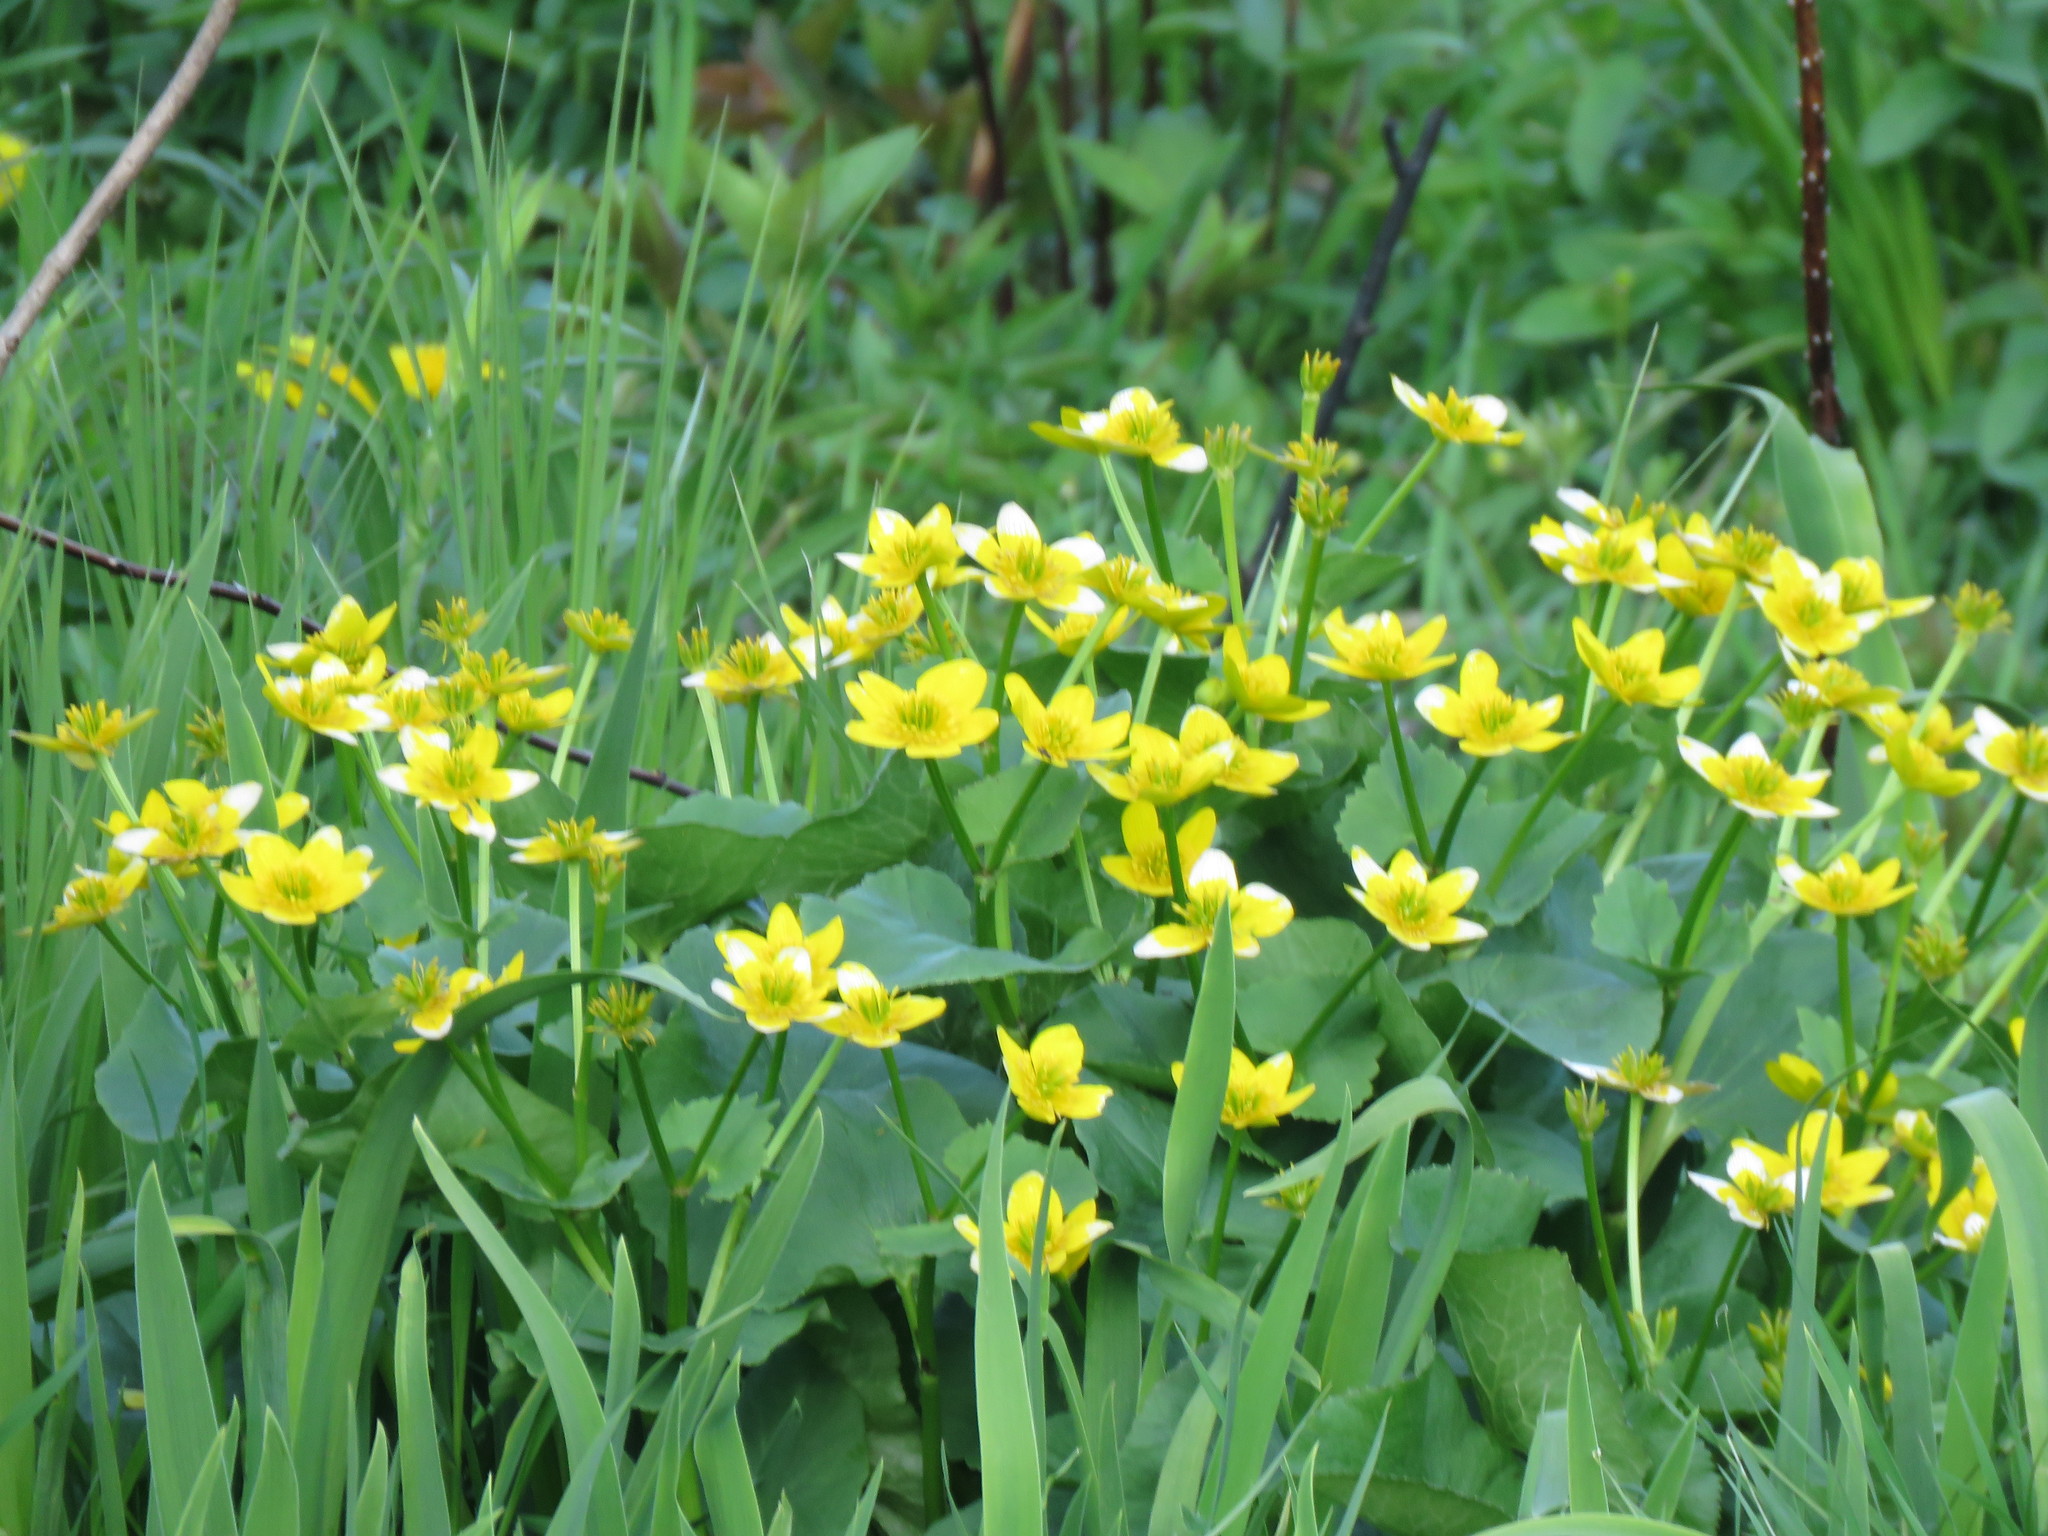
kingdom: Plantae
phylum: Tracheophyta
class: Magnoliopsida
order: Ranunculales
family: Ranunculaceae
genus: Caltha
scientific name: Caltha palustris
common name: Marsh marigold
